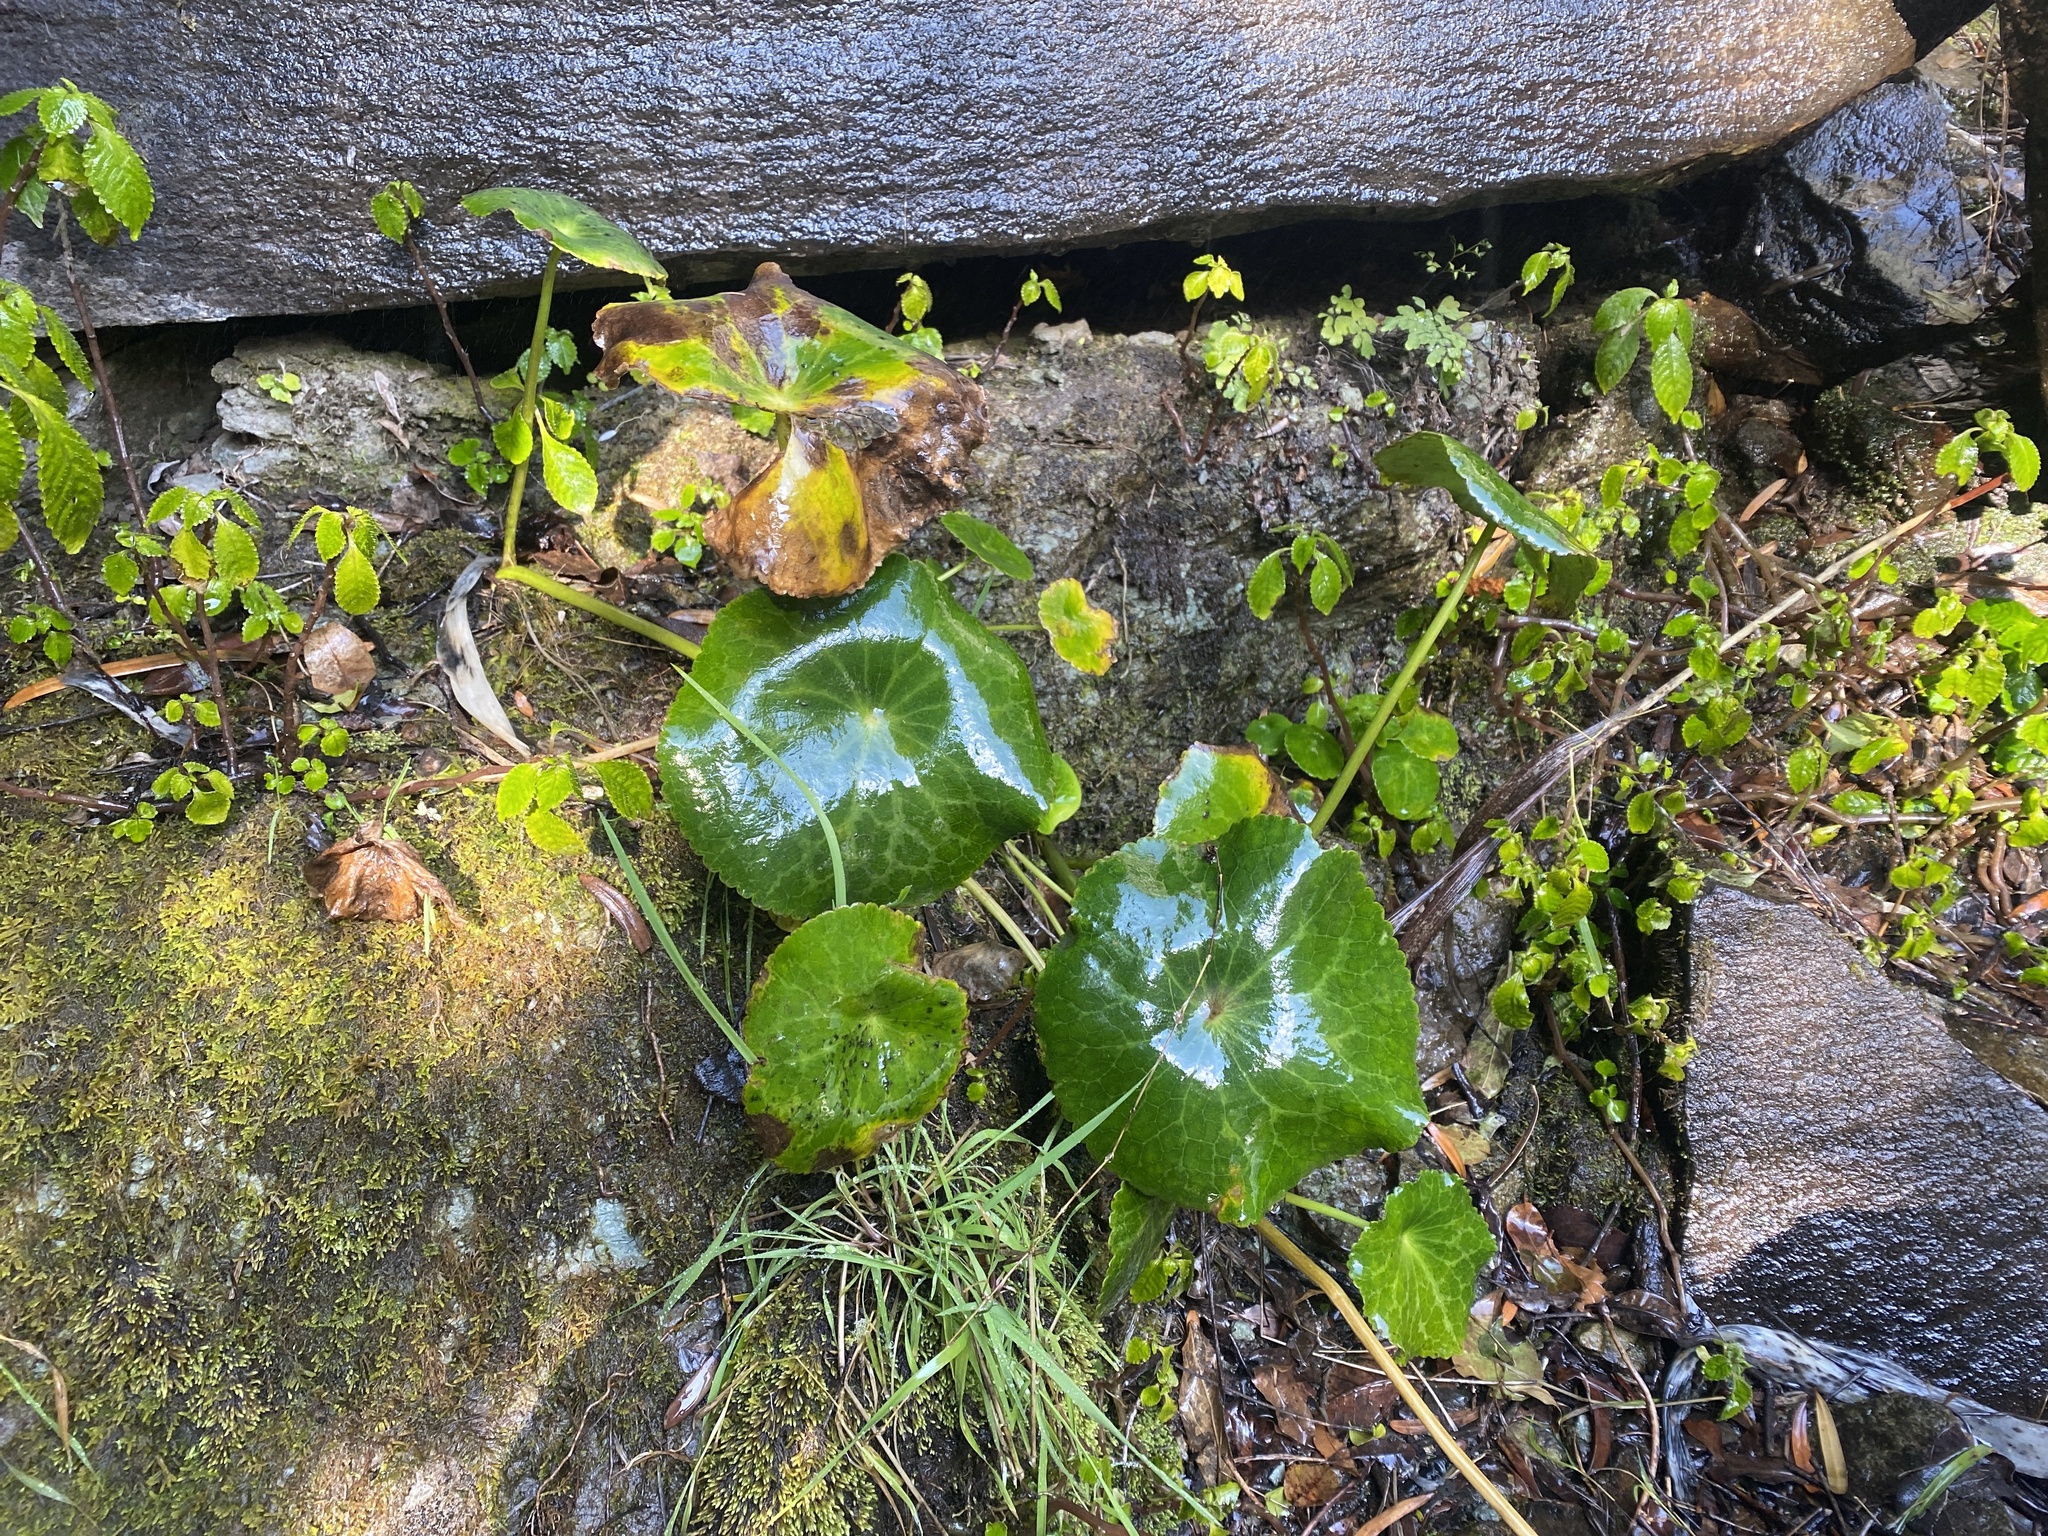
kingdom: Plantae
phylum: Tracheophyta
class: Magnoliopsida
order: Ranunculales
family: Ranunculaceae
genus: Peltocalathos
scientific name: Peltocalathos baurii
